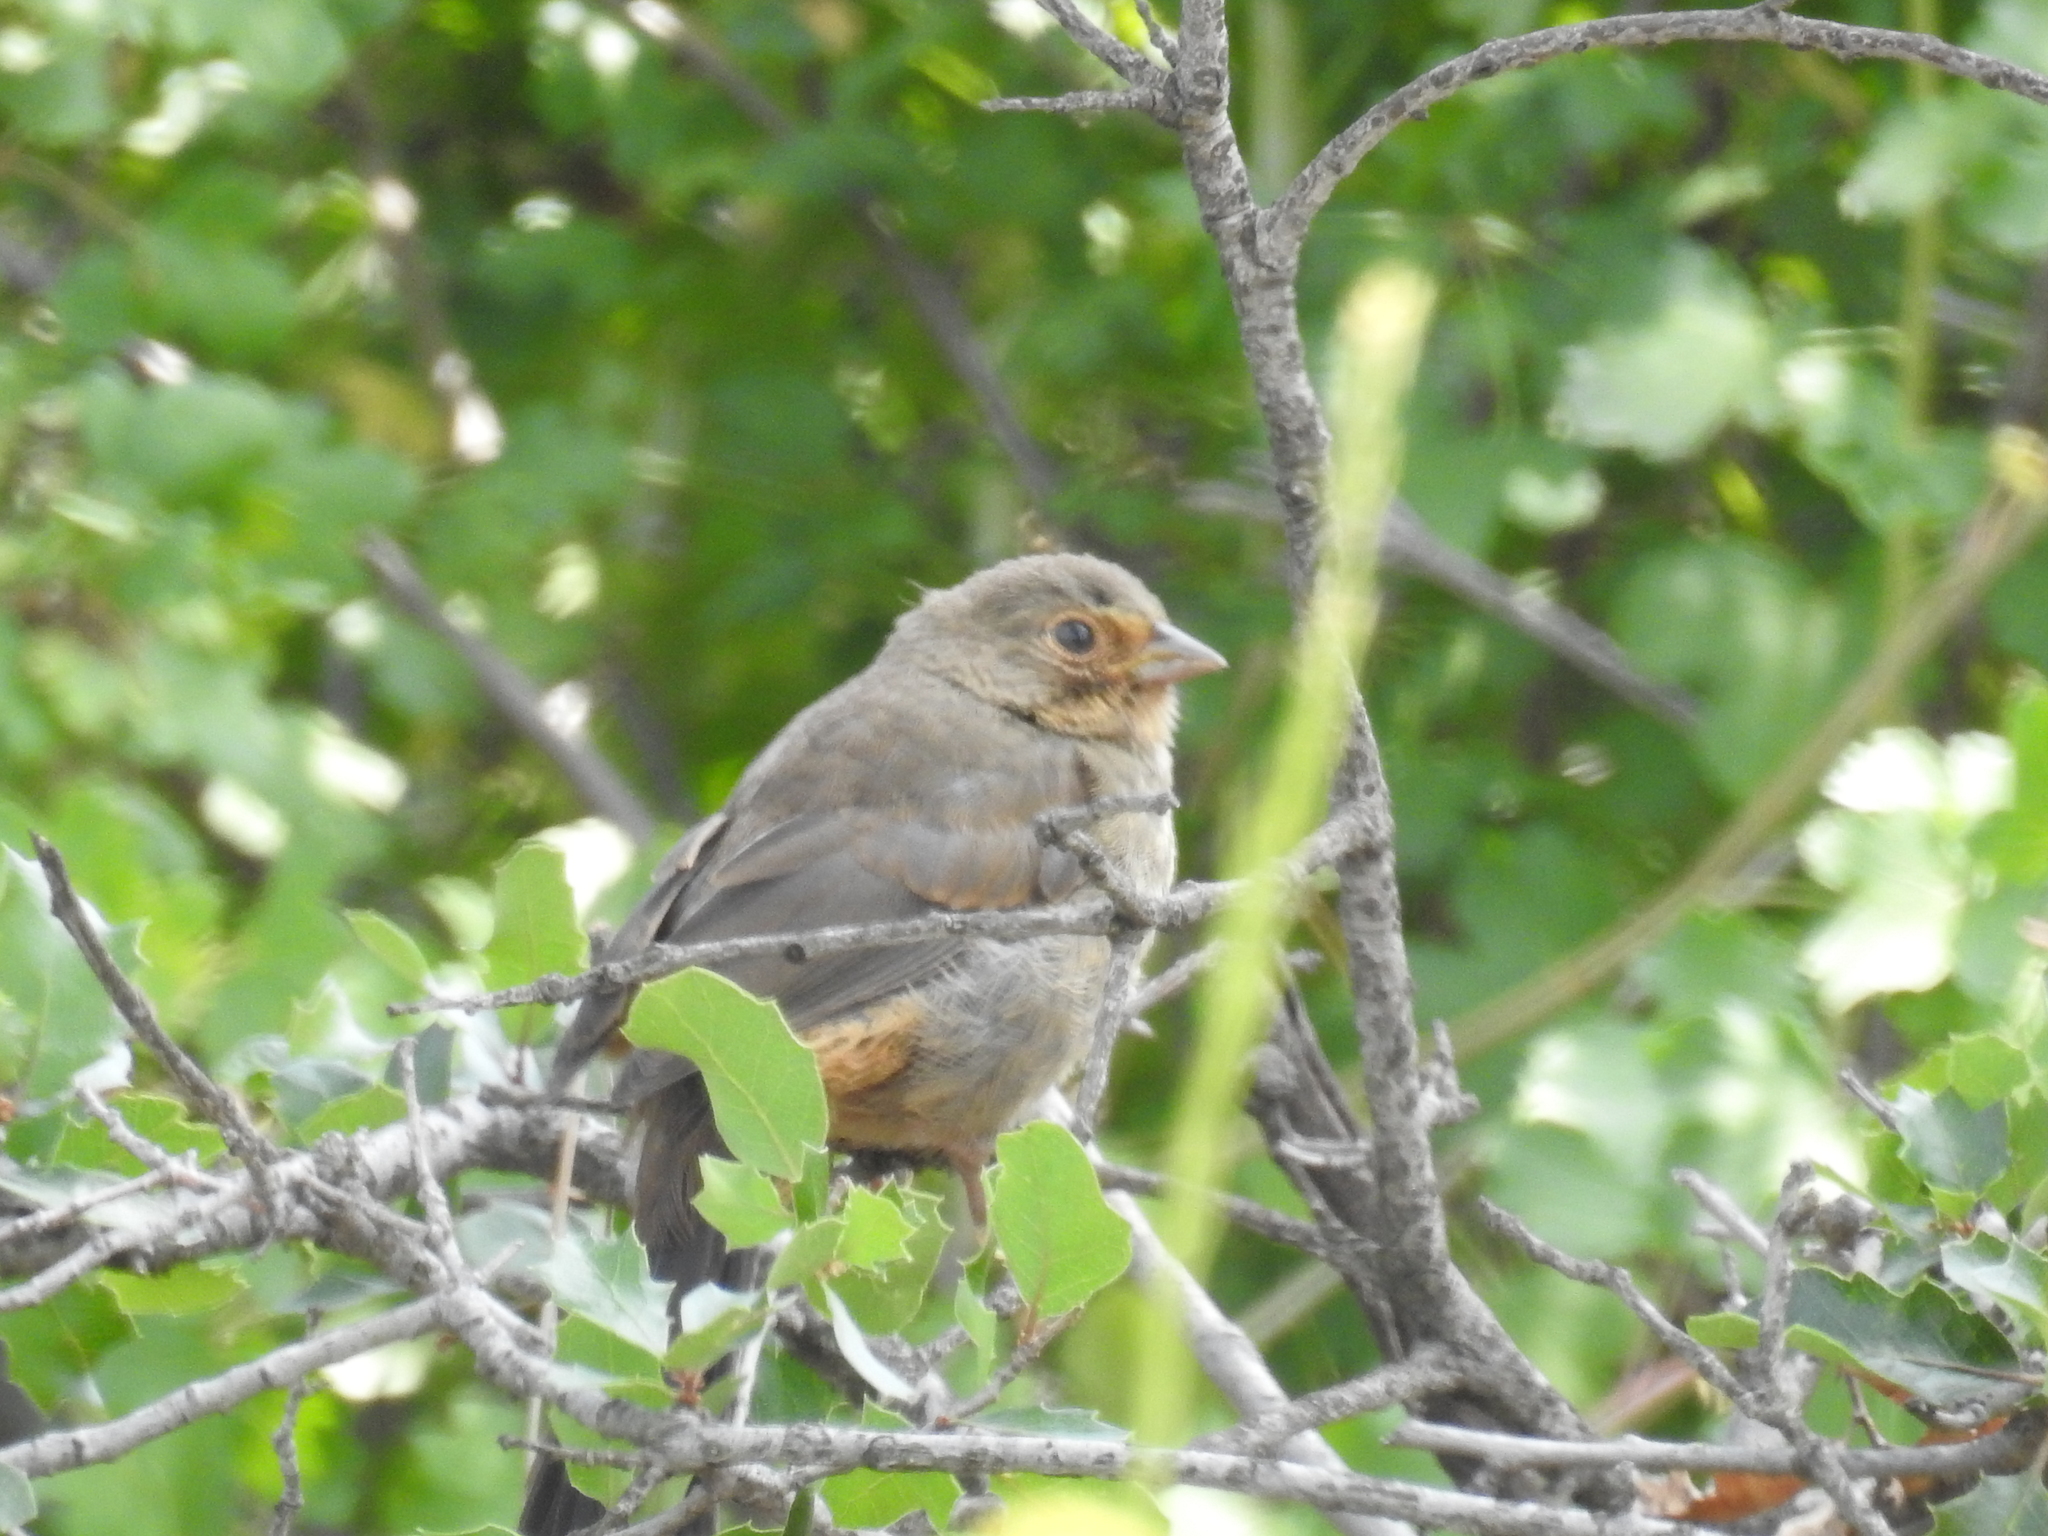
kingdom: Animalia
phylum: Chordata
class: Aves
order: Passeriformes
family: Passerellidae
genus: Melozone
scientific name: Melozone crissalis
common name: California towhee
